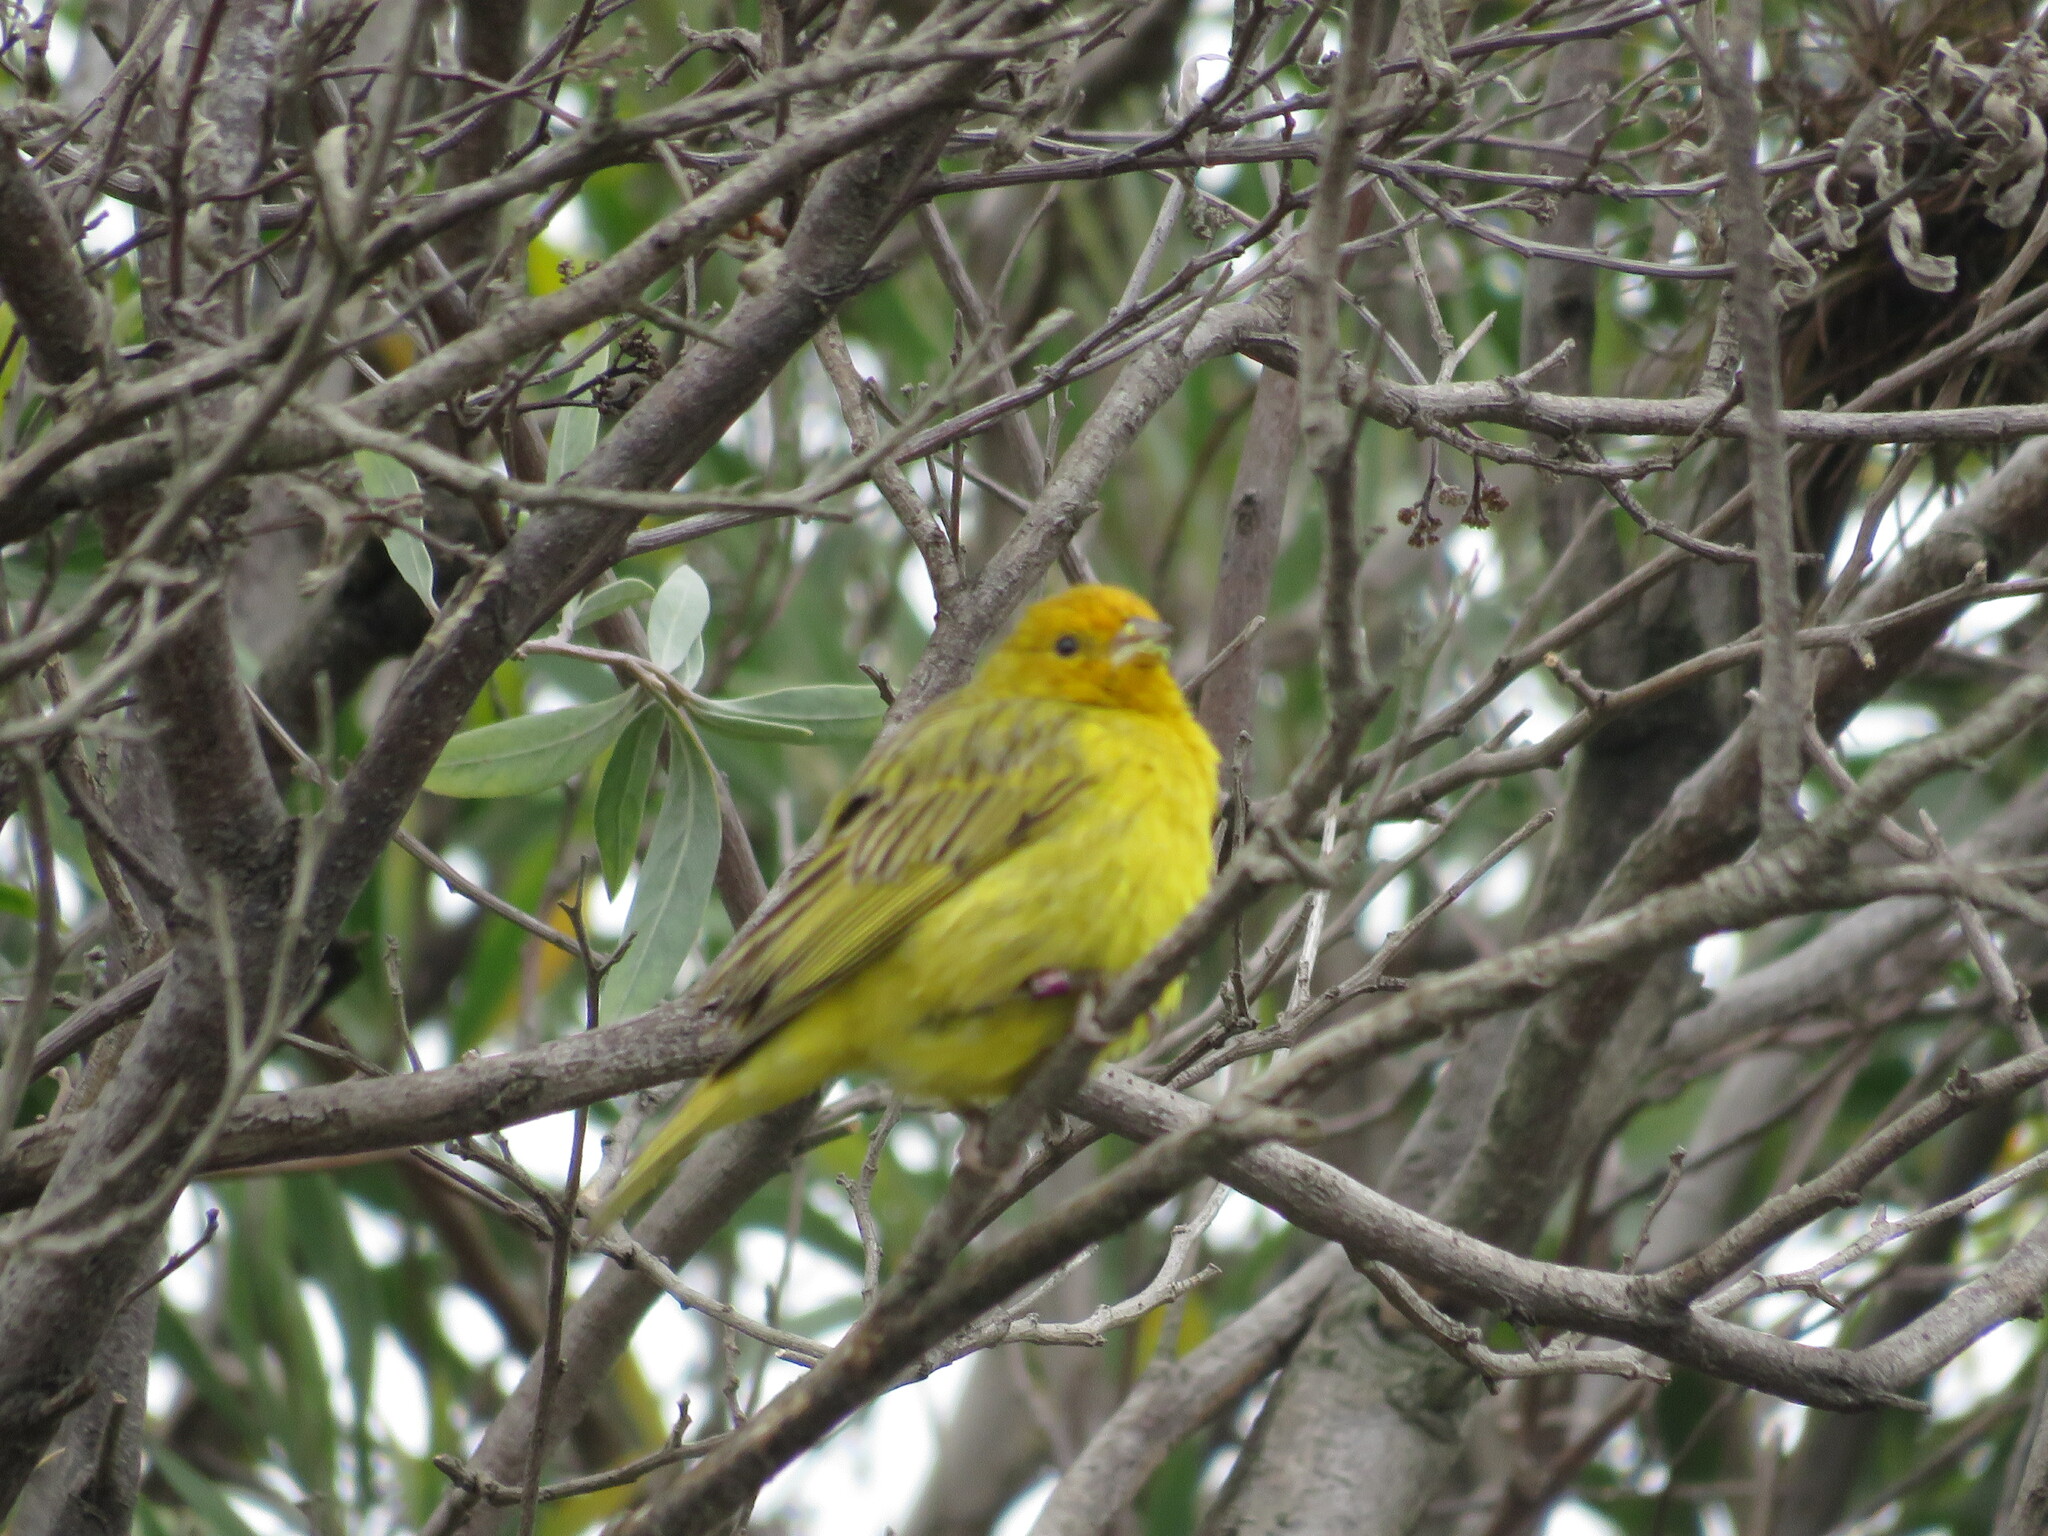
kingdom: Animalia
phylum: Chordata
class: Aves
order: Passeriformes
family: Thraupidae
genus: Sicalis
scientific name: Sicalis flaveola
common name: Saffron finch
